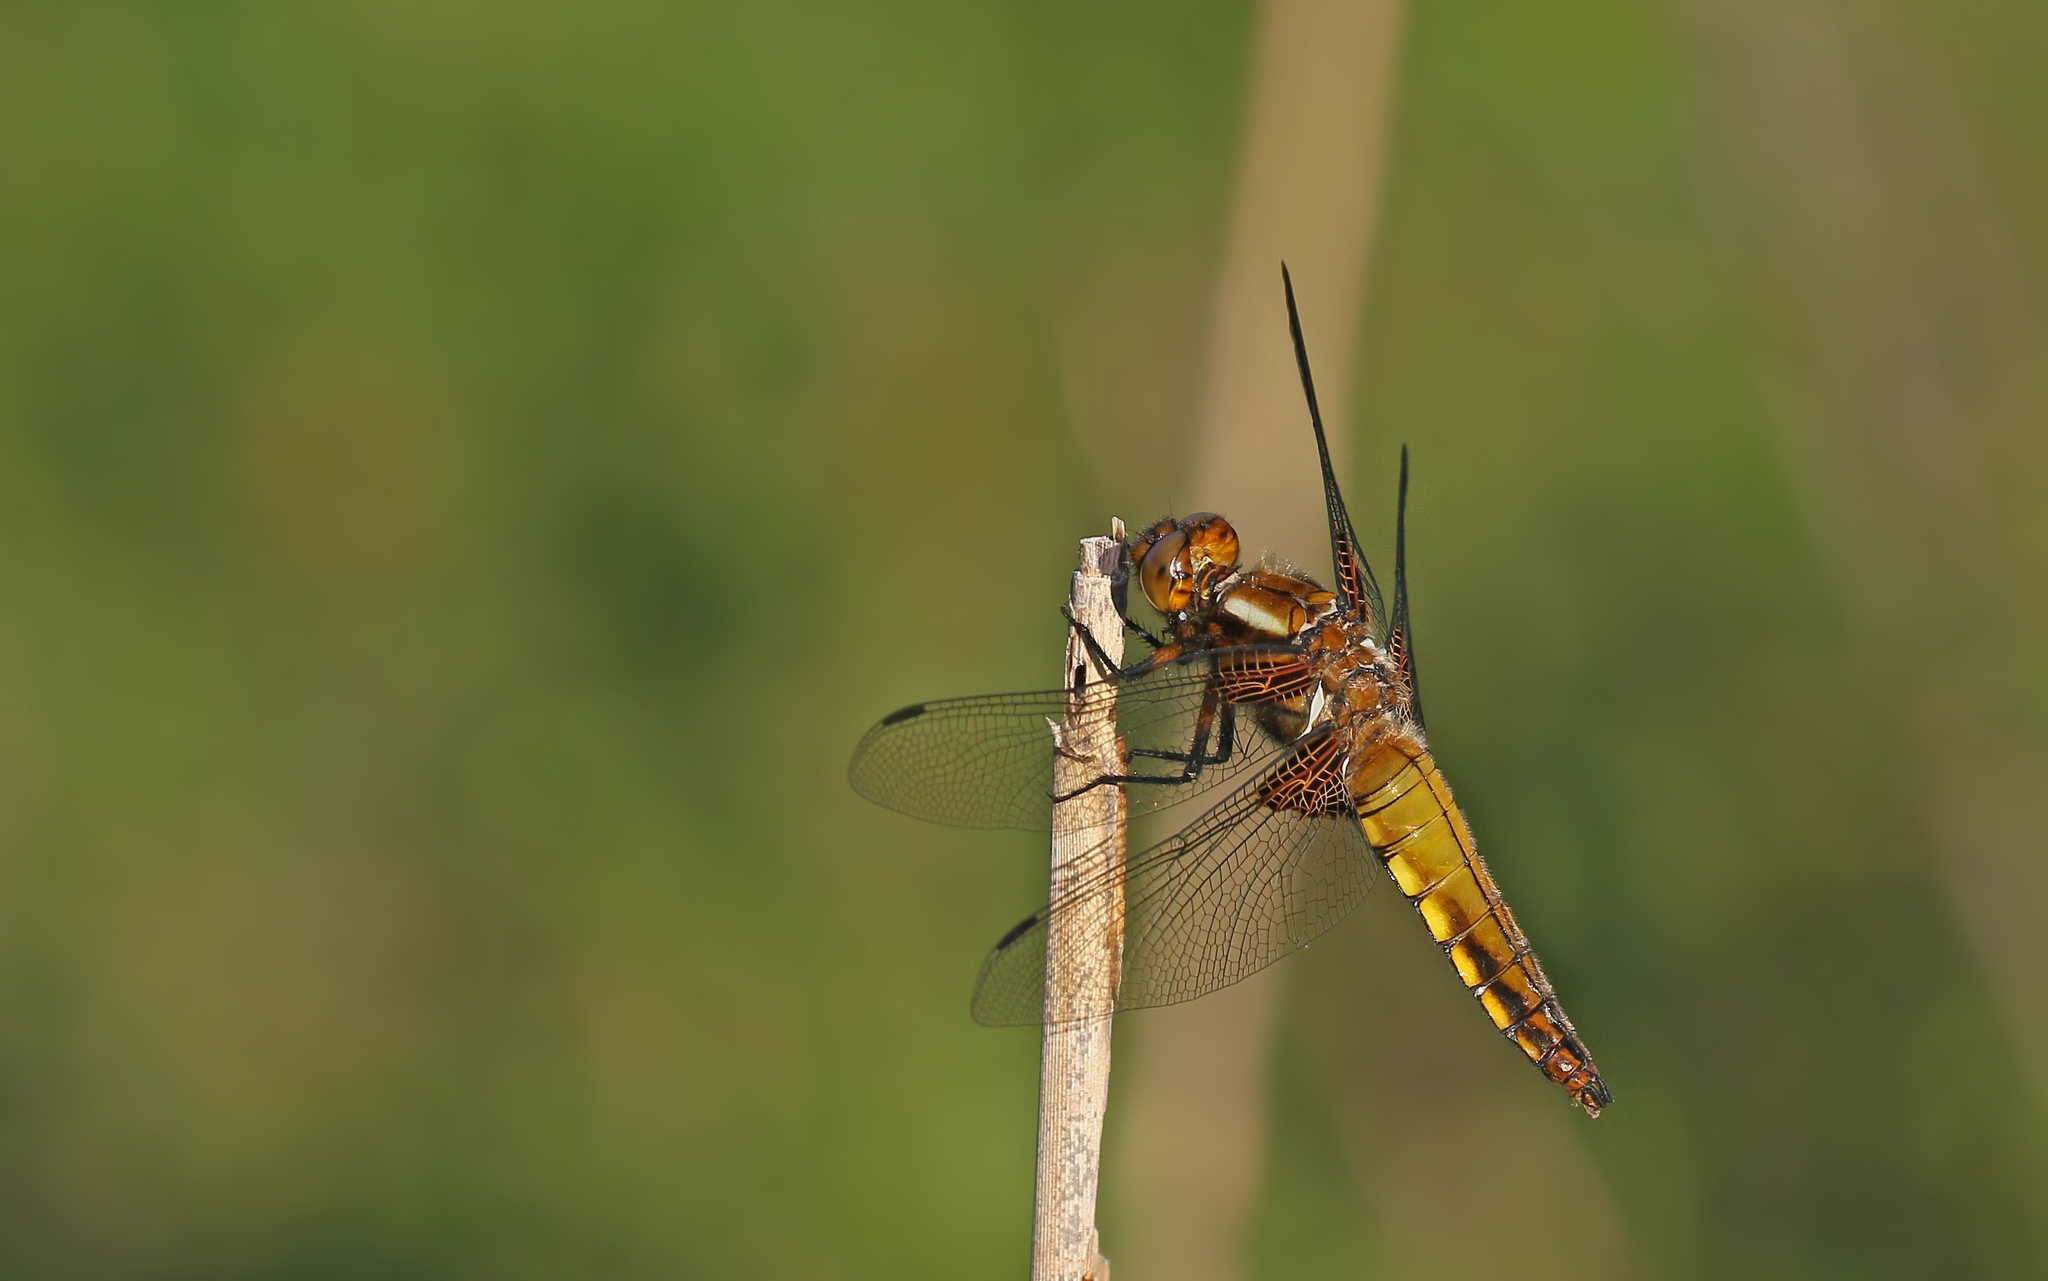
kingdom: Animalia
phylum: Arthropoda
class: Insecta
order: Odonata
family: Libellulidae
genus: Libellula
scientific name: Libellula depressa
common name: Broad-bodied chaser
